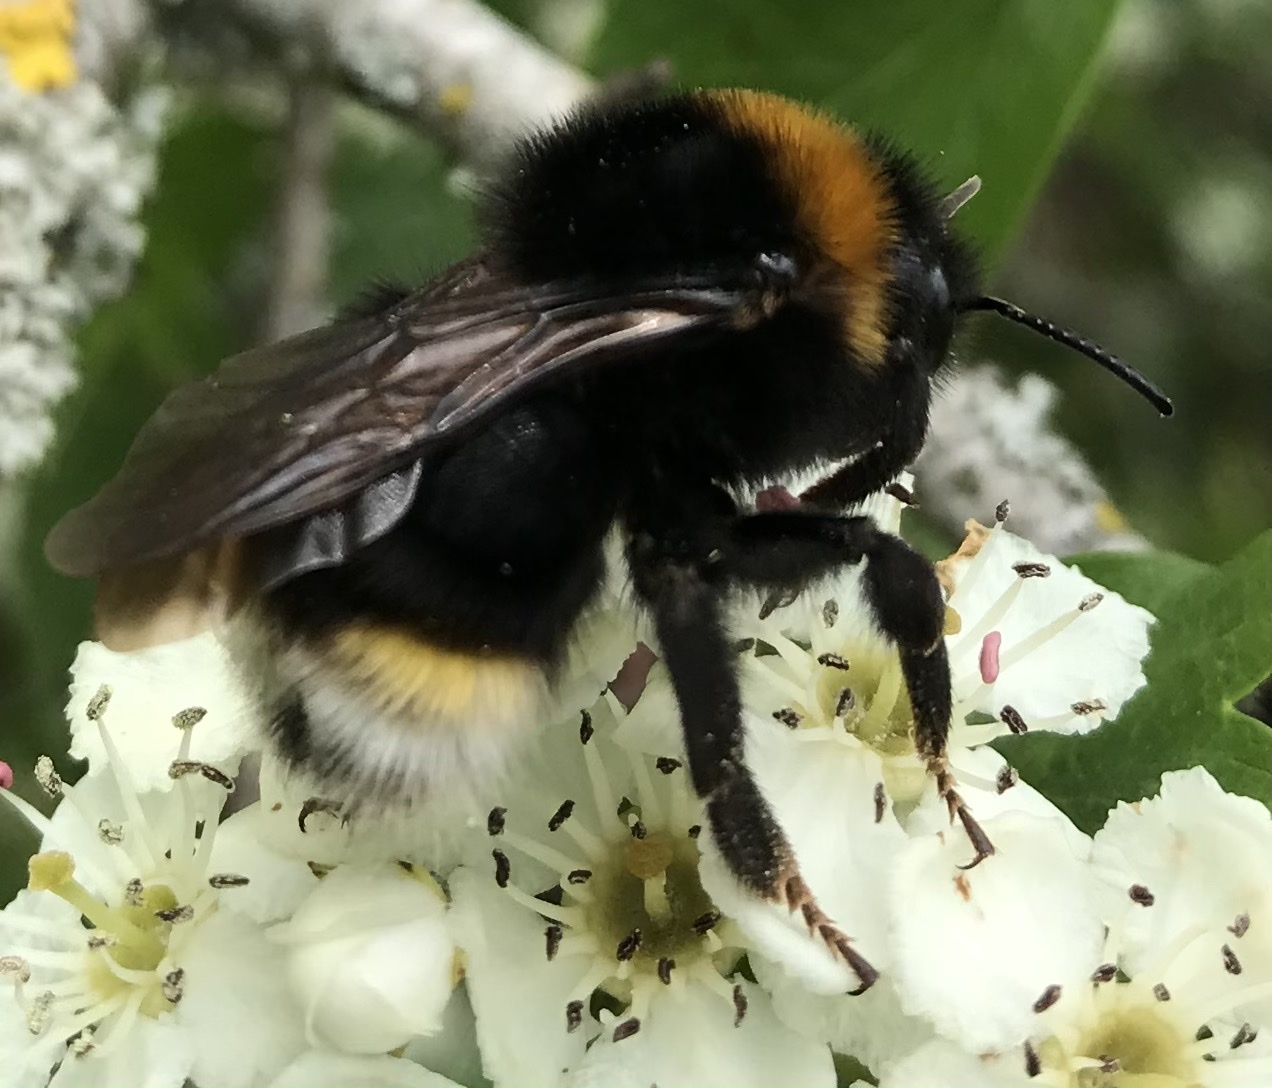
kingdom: Animalia
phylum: Arthropoda
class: Insecta
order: Hymenoptera
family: Apidae
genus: Bombus
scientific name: Bombus vestalis
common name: Vestal cuckoo bee
